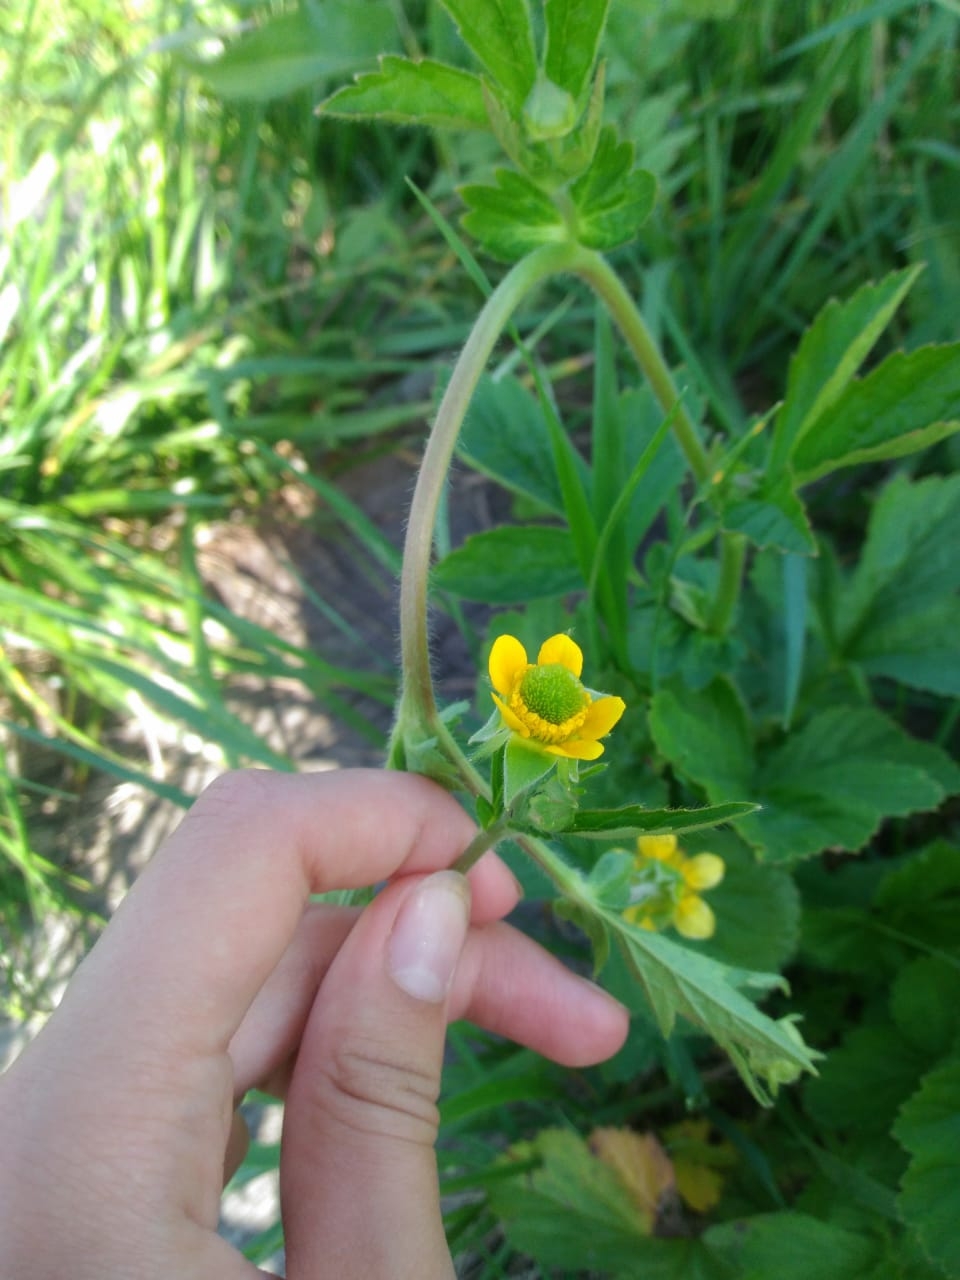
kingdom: Plantae
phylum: Tracheophyta
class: Magnoliopsida
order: Rosales
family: Rosaceae
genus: Geum
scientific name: Geum aleppicum
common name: Yellow avens
